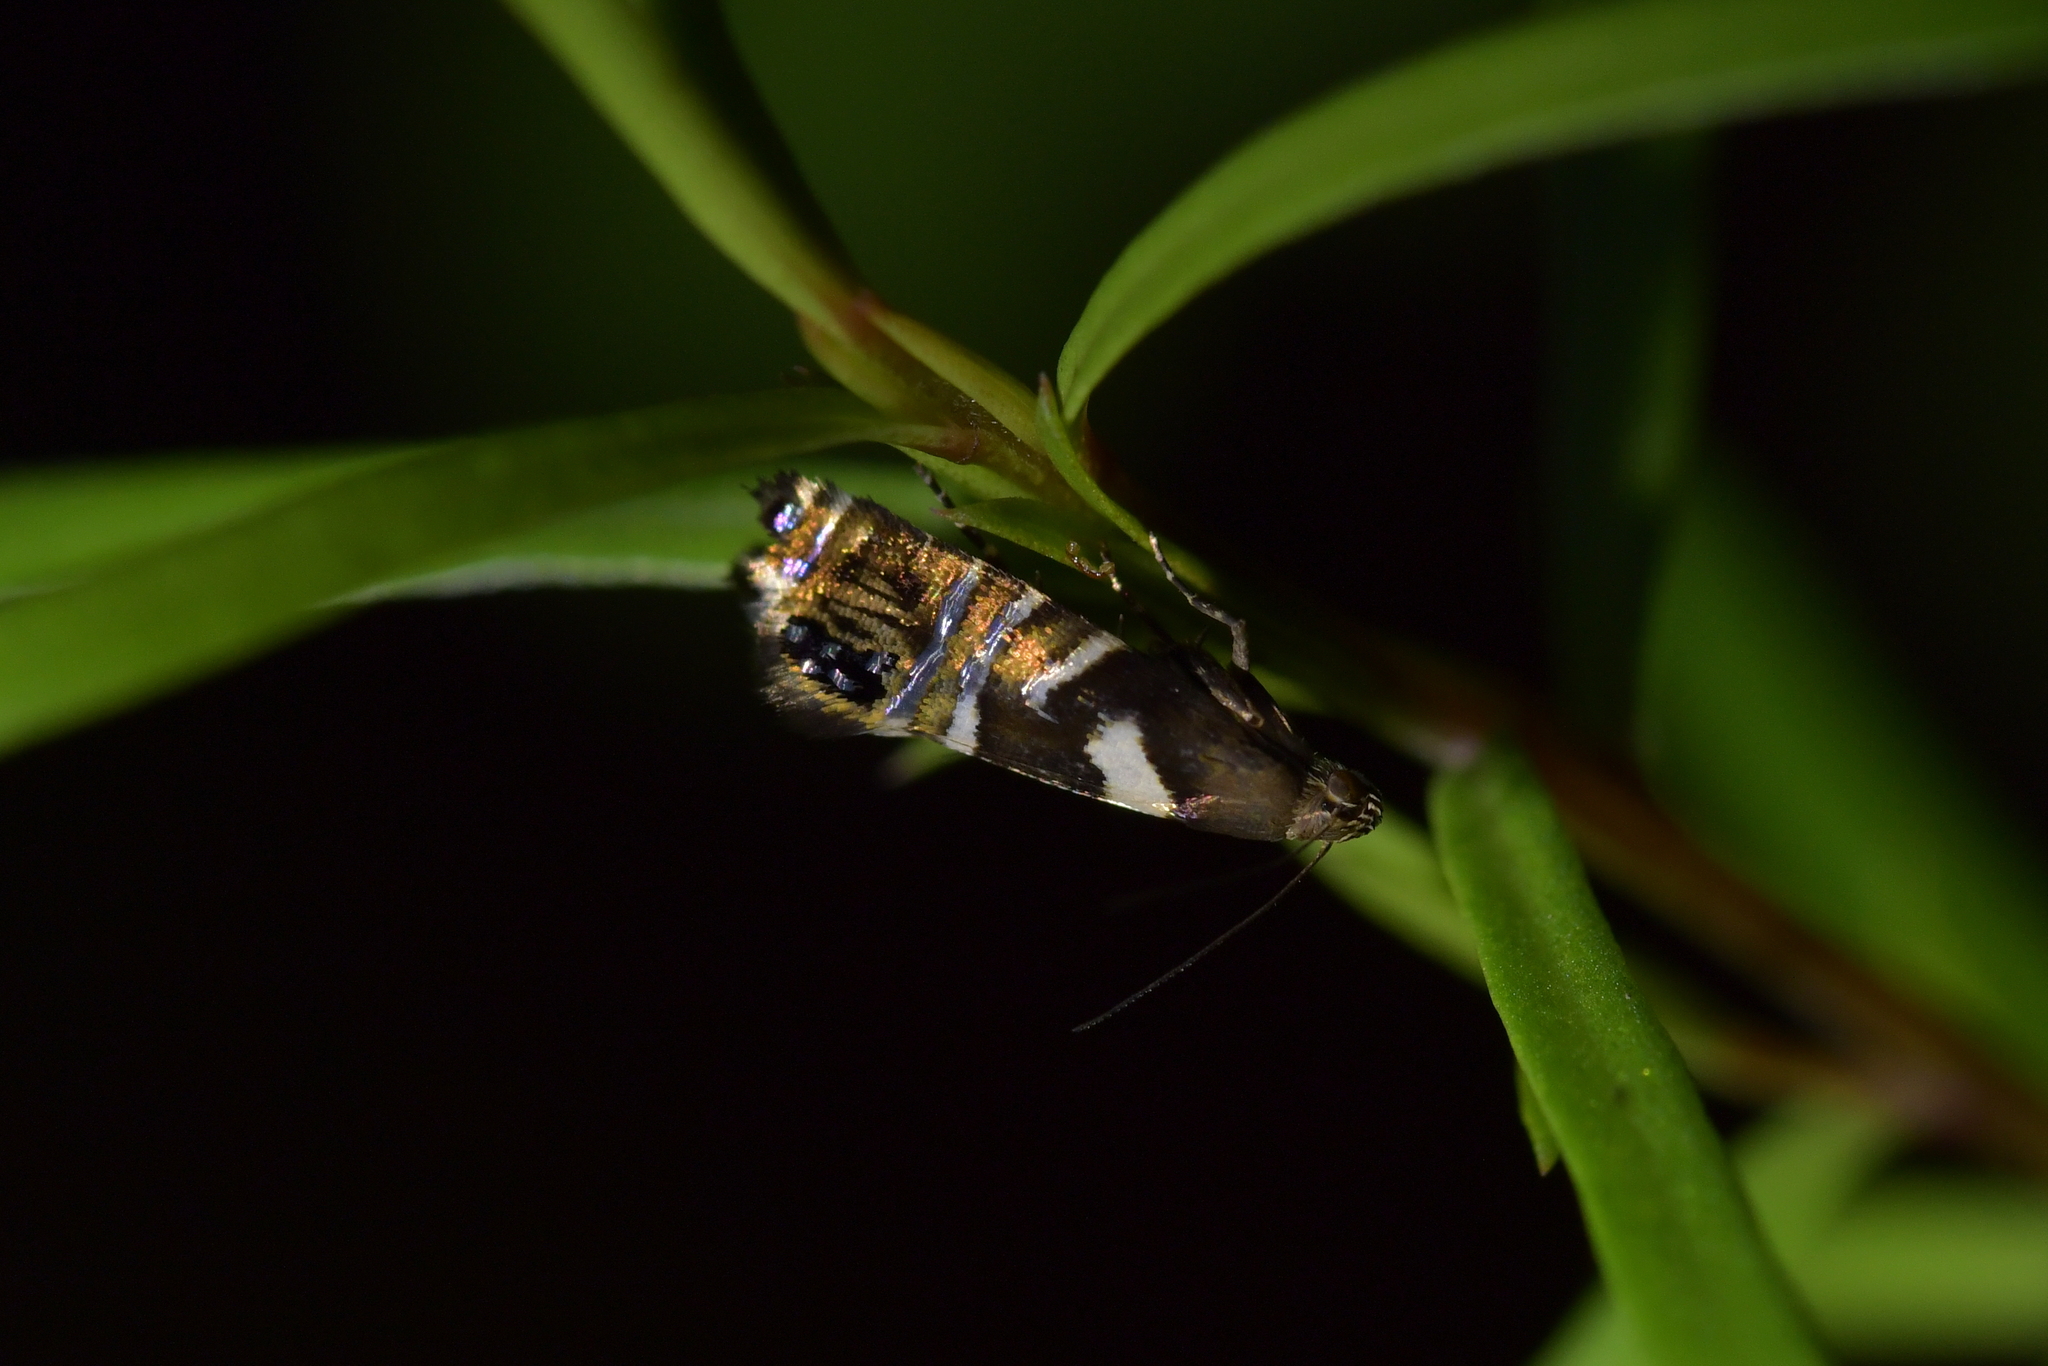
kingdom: Animalia
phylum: Arthropoda
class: Insecta
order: Lepidoptera
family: Glyphipterigidae
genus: Glyphipterix
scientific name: Glyphipterix zelota
